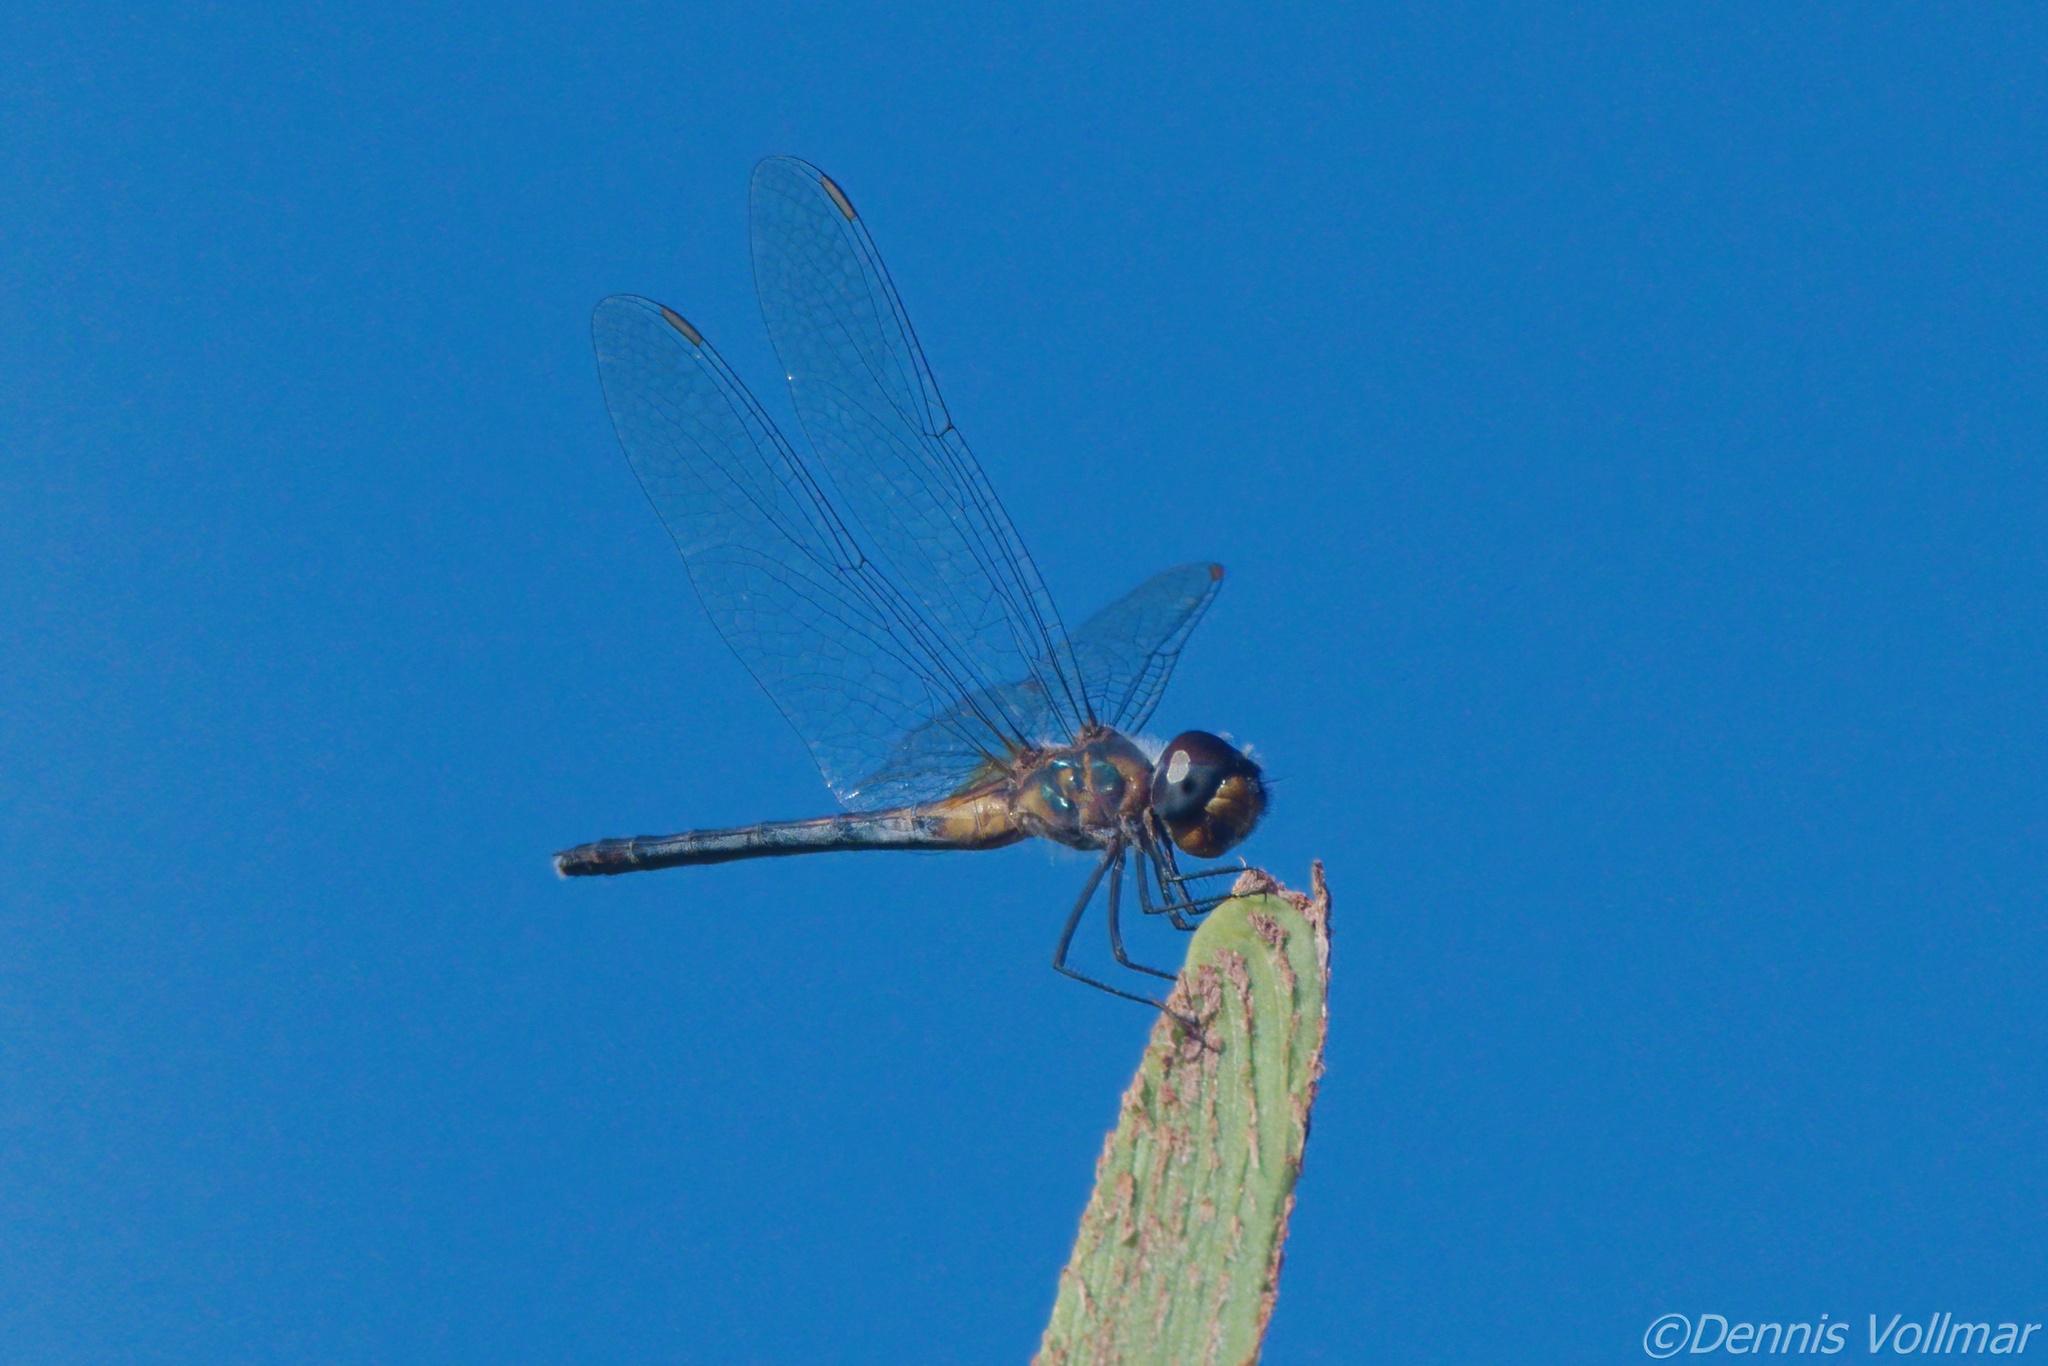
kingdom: Animalia
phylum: Arthropoda
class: Insecta
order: Odonata
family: Libellulidae
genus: Idiataphe
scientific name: Idiataphe cubensis
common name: Metallic pennant
